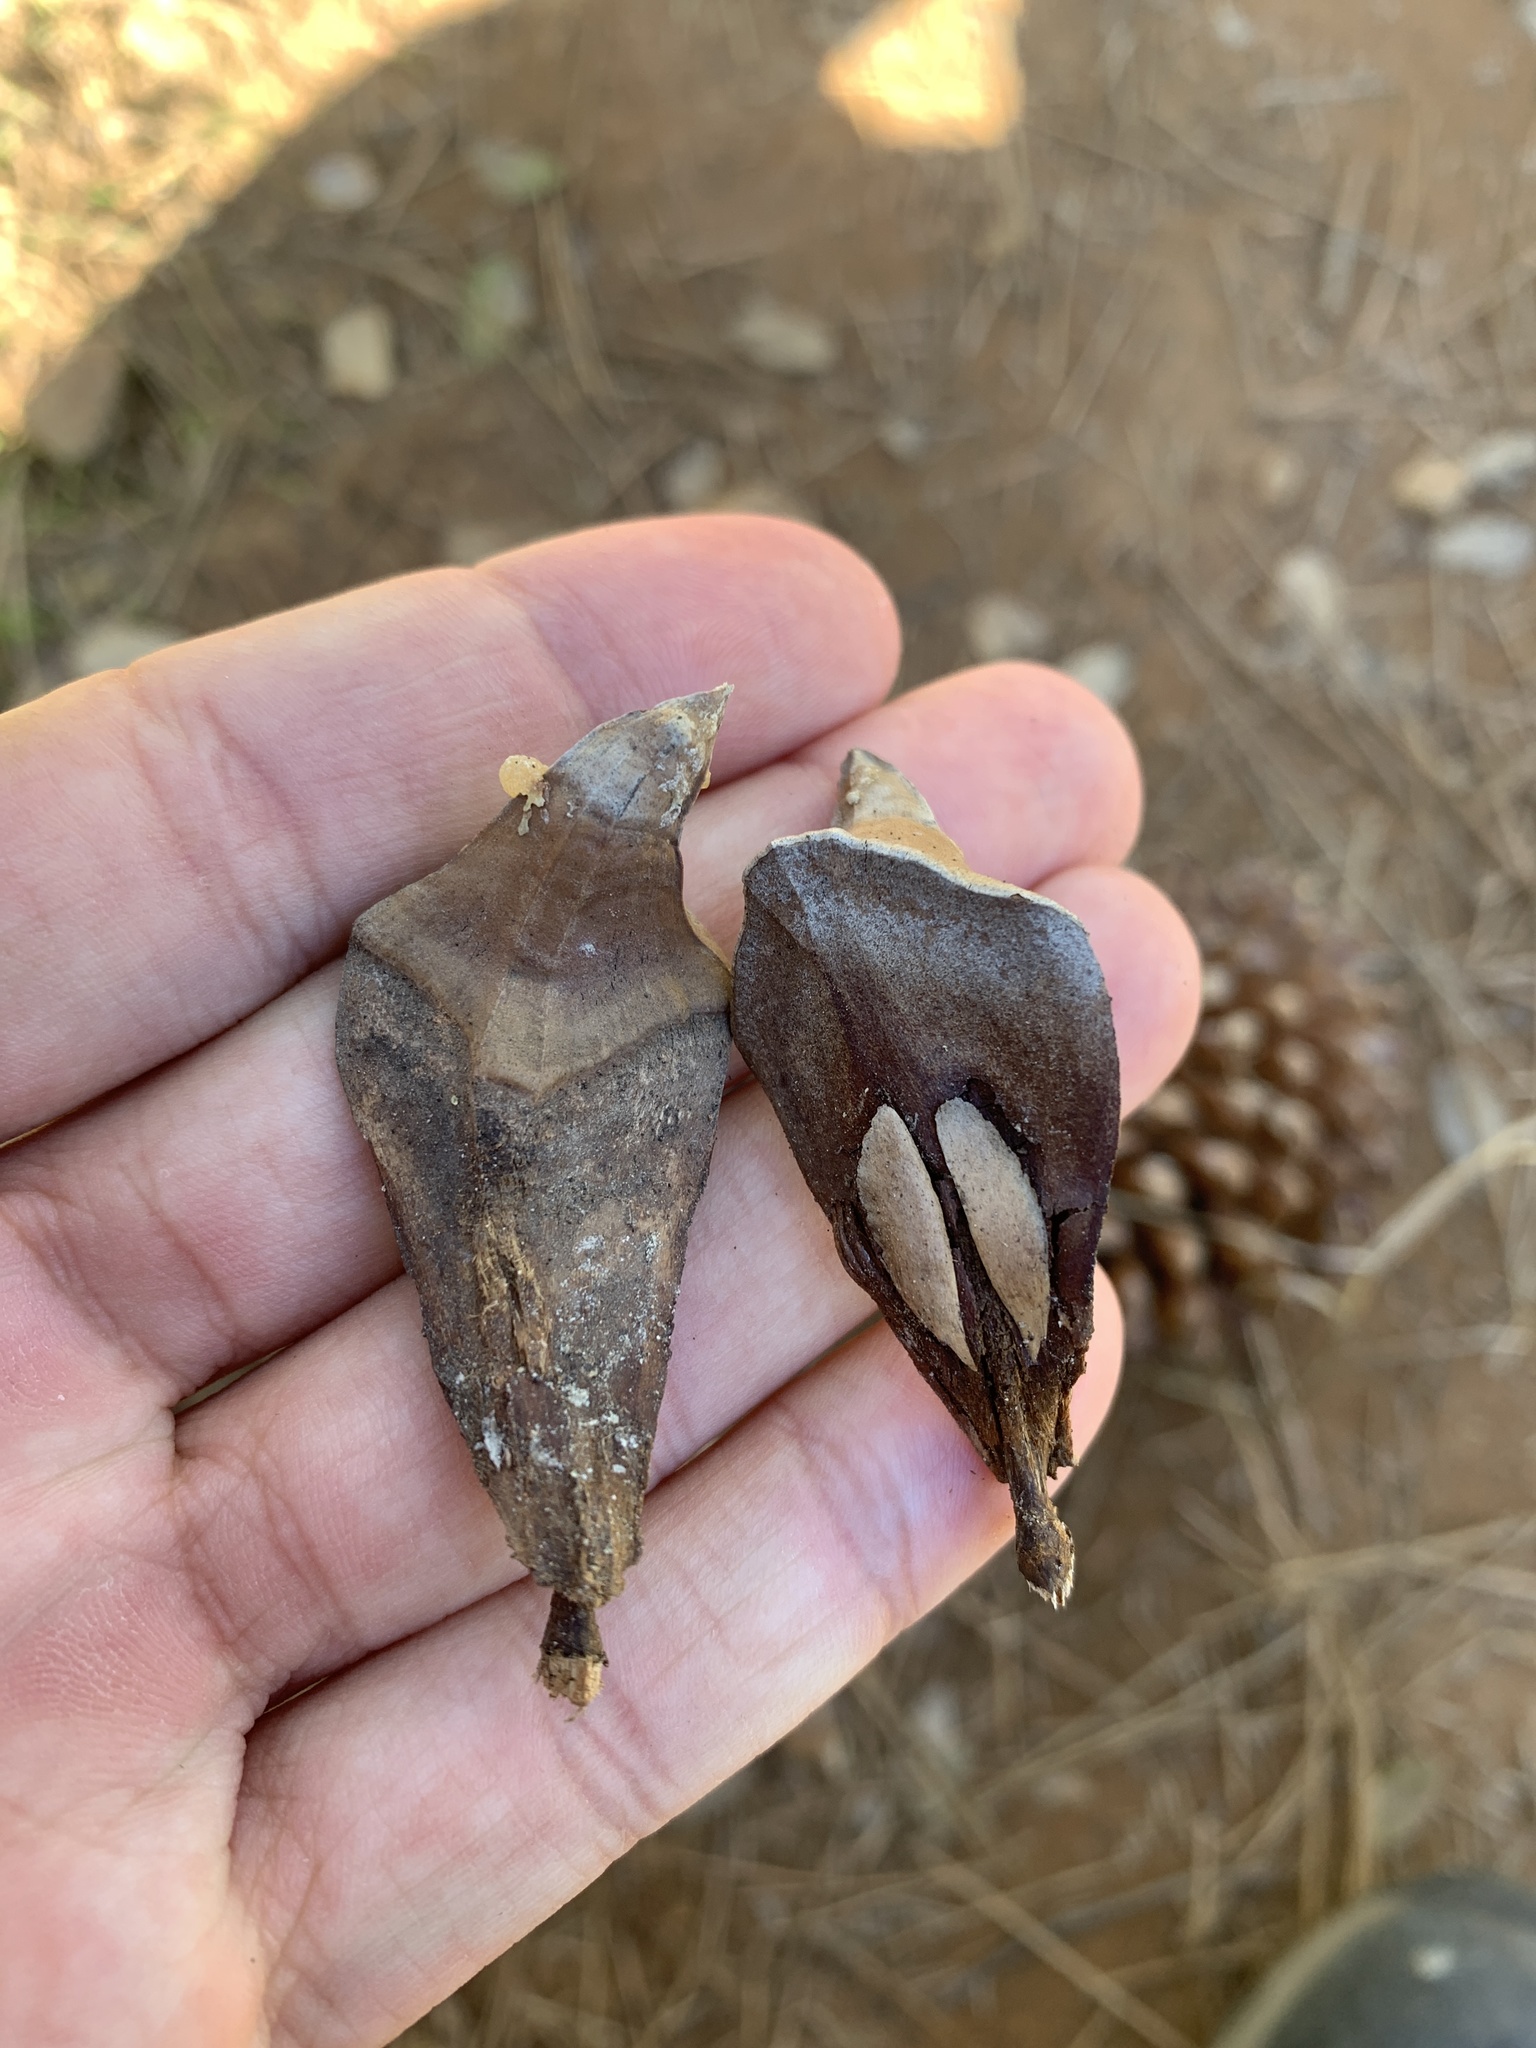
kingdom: Plantae
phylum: Tracheophyta
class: Pinopsida
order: Pinales
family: Pinaceae
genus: Pinus
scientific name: Pinus sabiniana
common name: Bull pine
